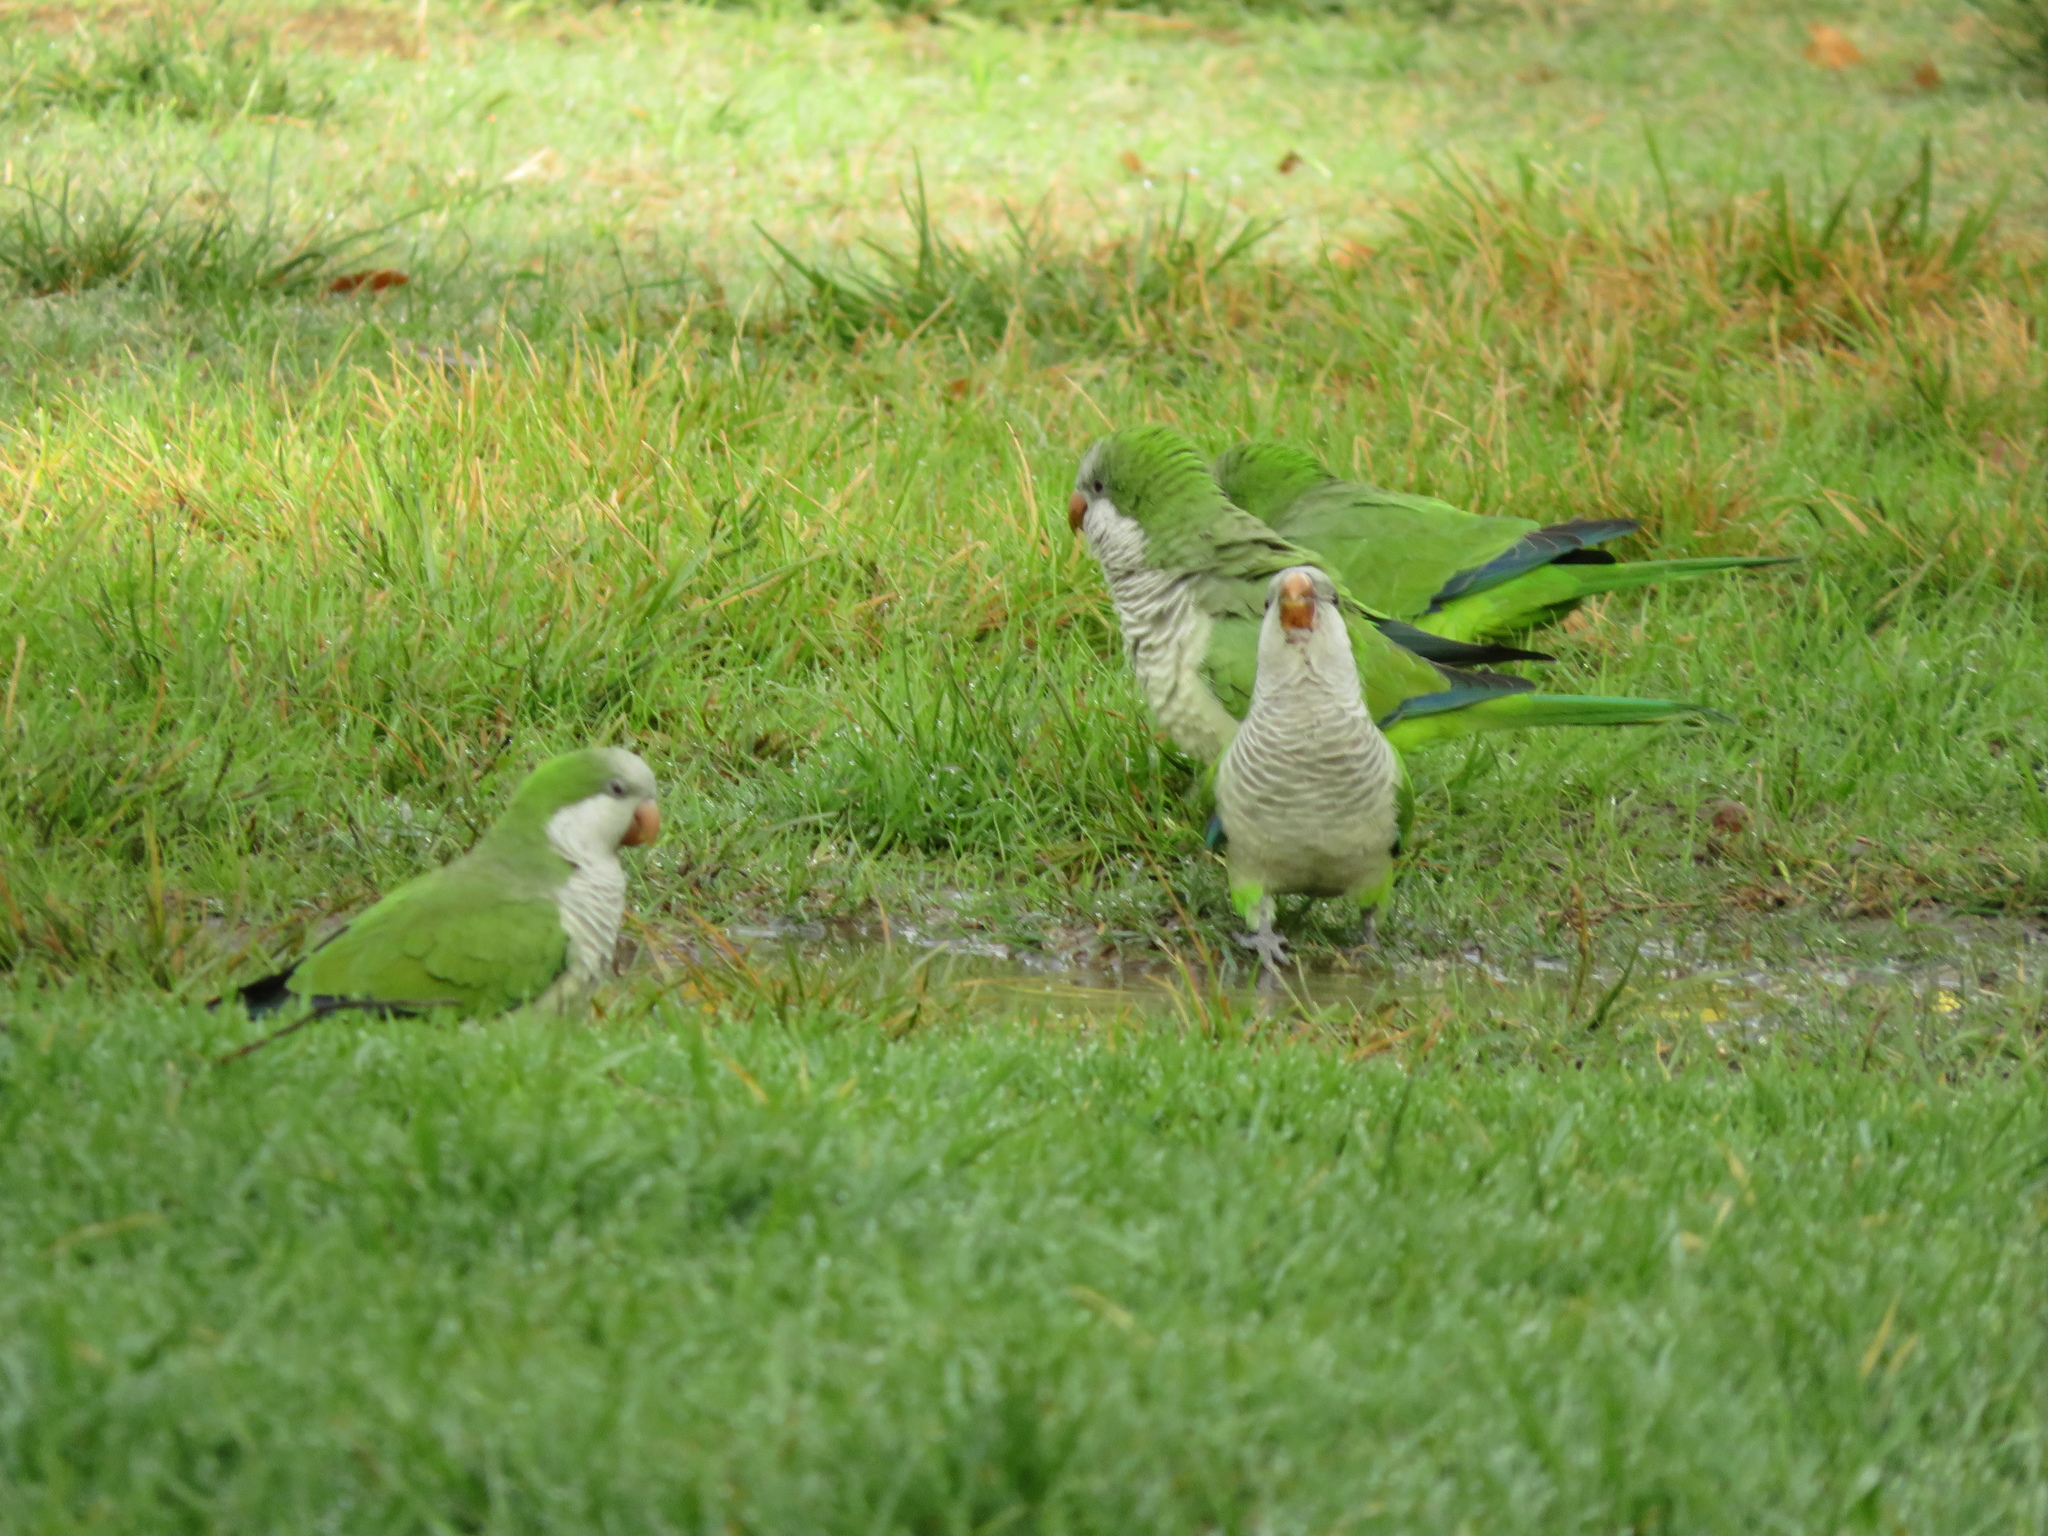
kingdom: Animalia
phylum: Chordata
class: Aves
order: Psittaciformes
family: Psittacidae
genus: Myiopsitta
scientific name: Myiopsitta monachus
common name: Monk parakeet
